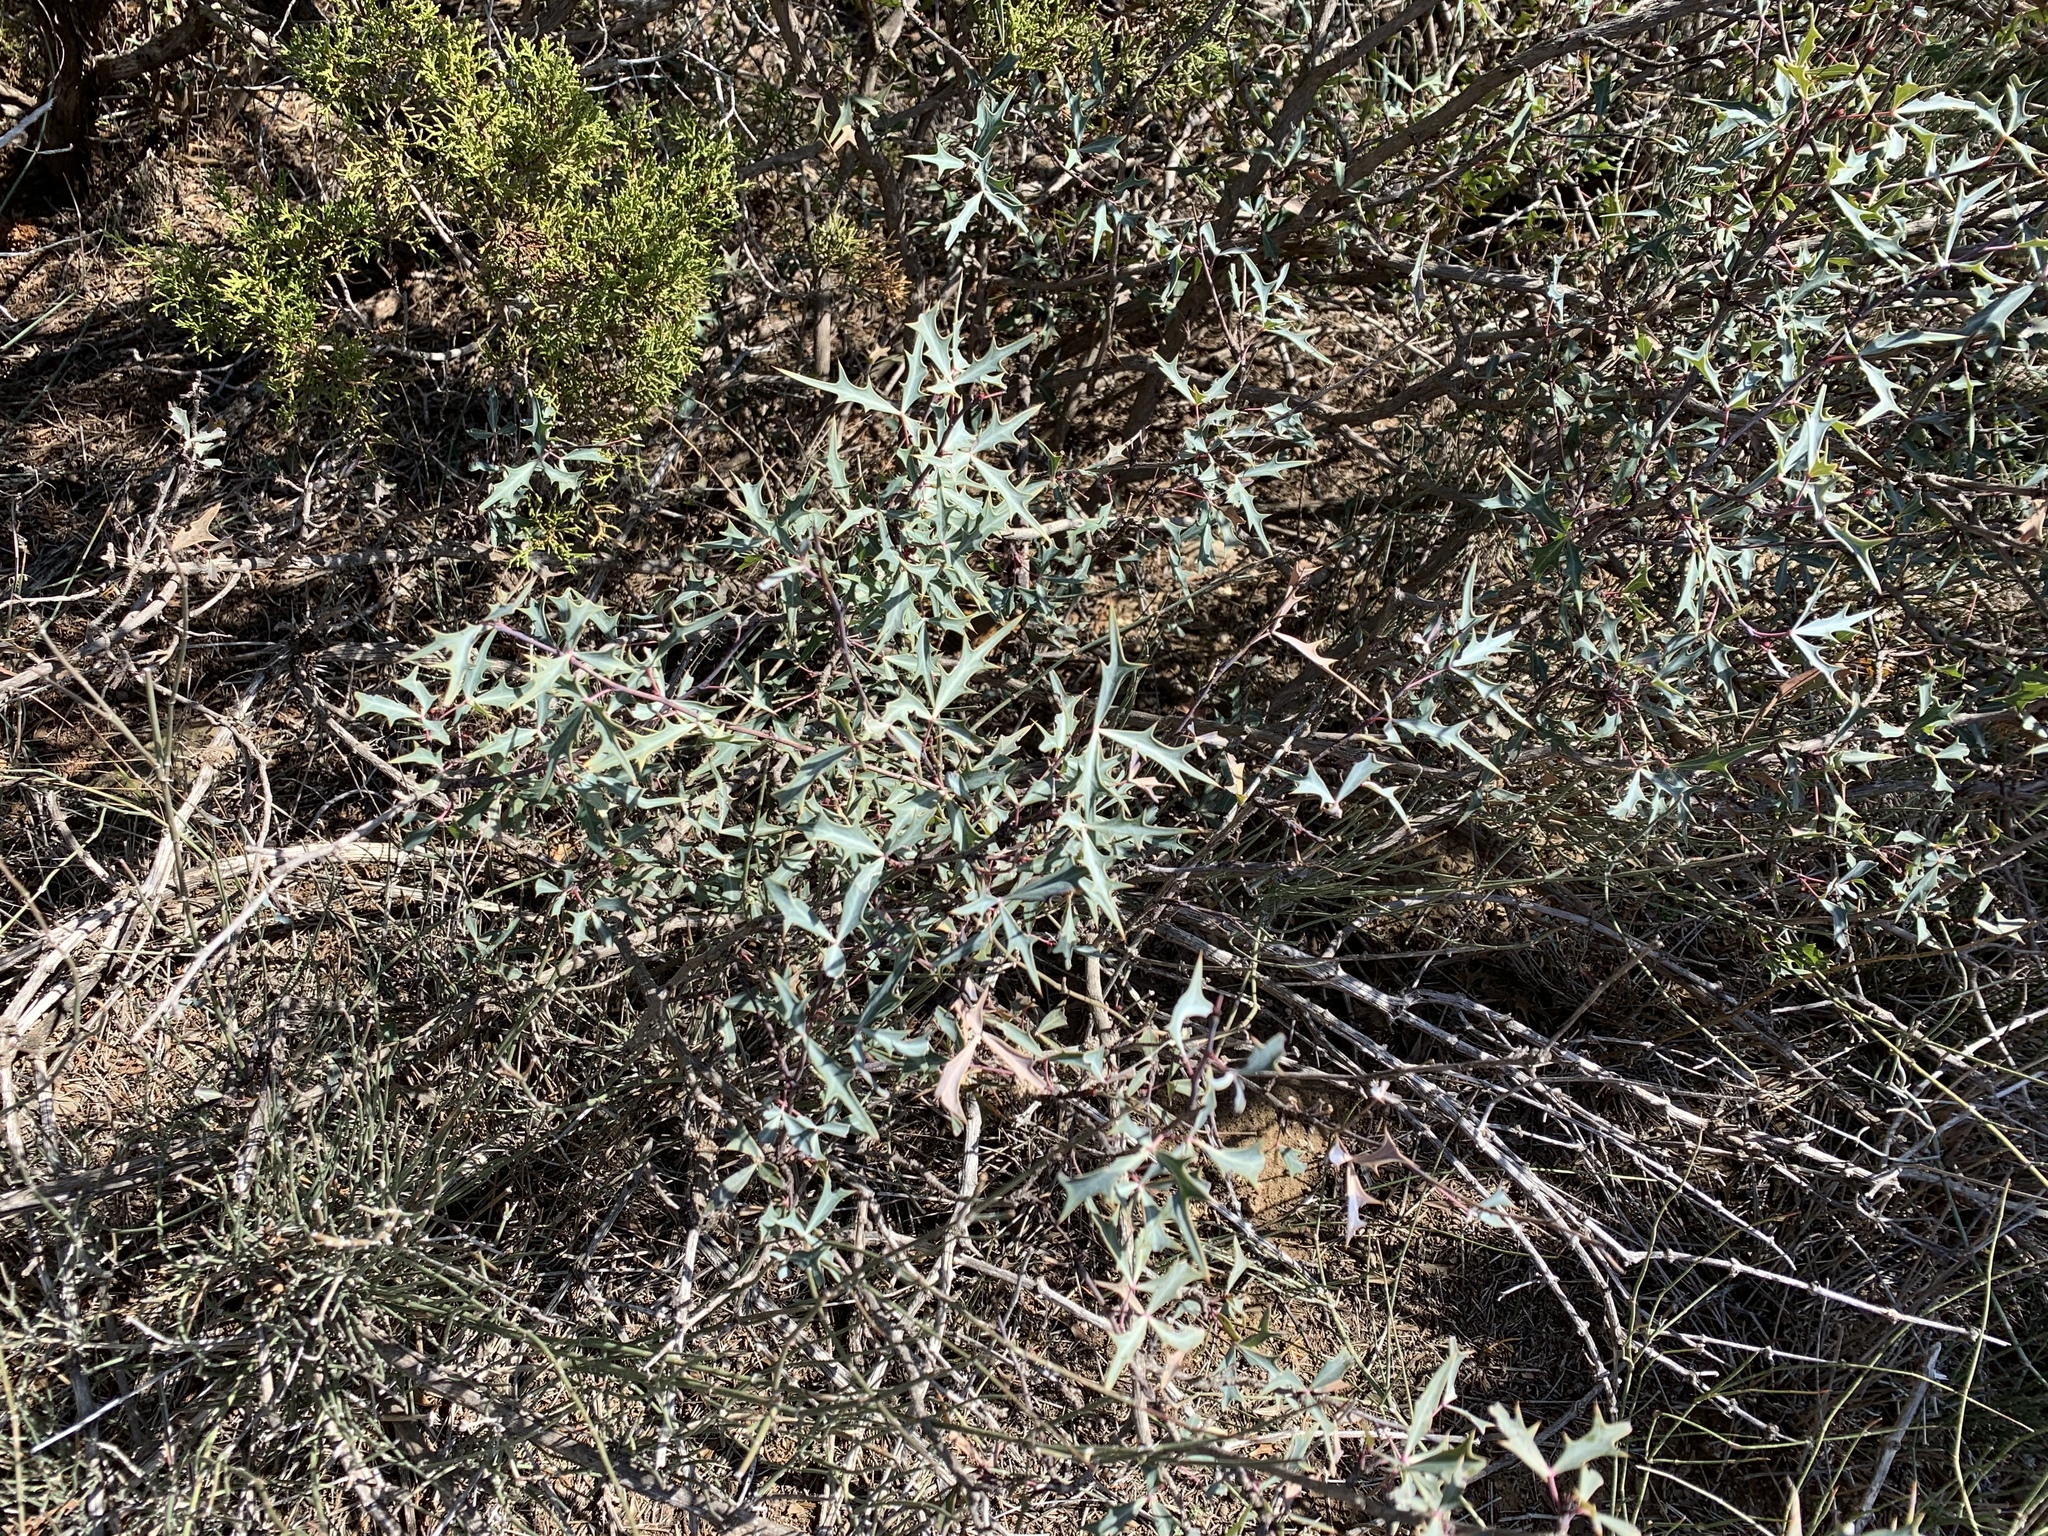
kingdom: Plantae
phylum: Tracheophyta
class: Magnoliopsida
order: Ranunculales
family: Berberidaceae
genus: Alloberberis
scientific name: Alloberberis trifoliolata
